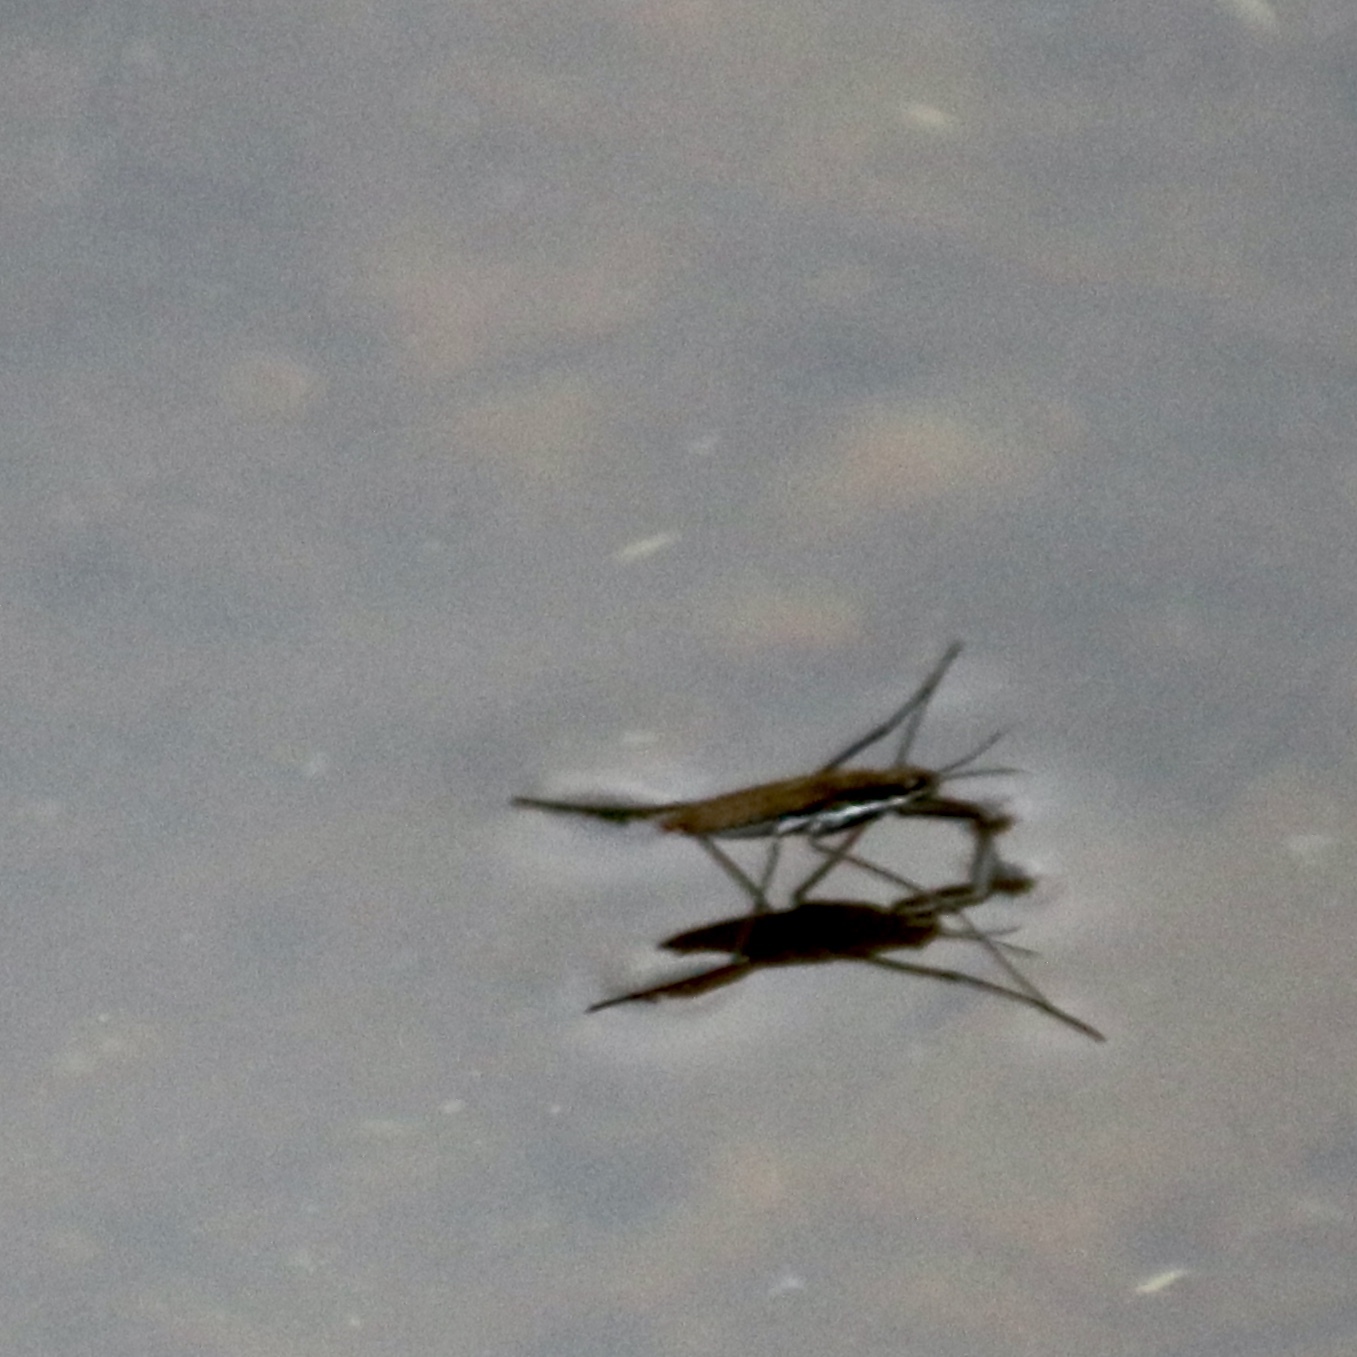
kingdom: Animalia
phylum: Arthropoda
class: Insecta
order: Hemiptera
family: Gerridae
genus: Aquarius
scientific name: Aquarius remigis
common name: Common water strider
